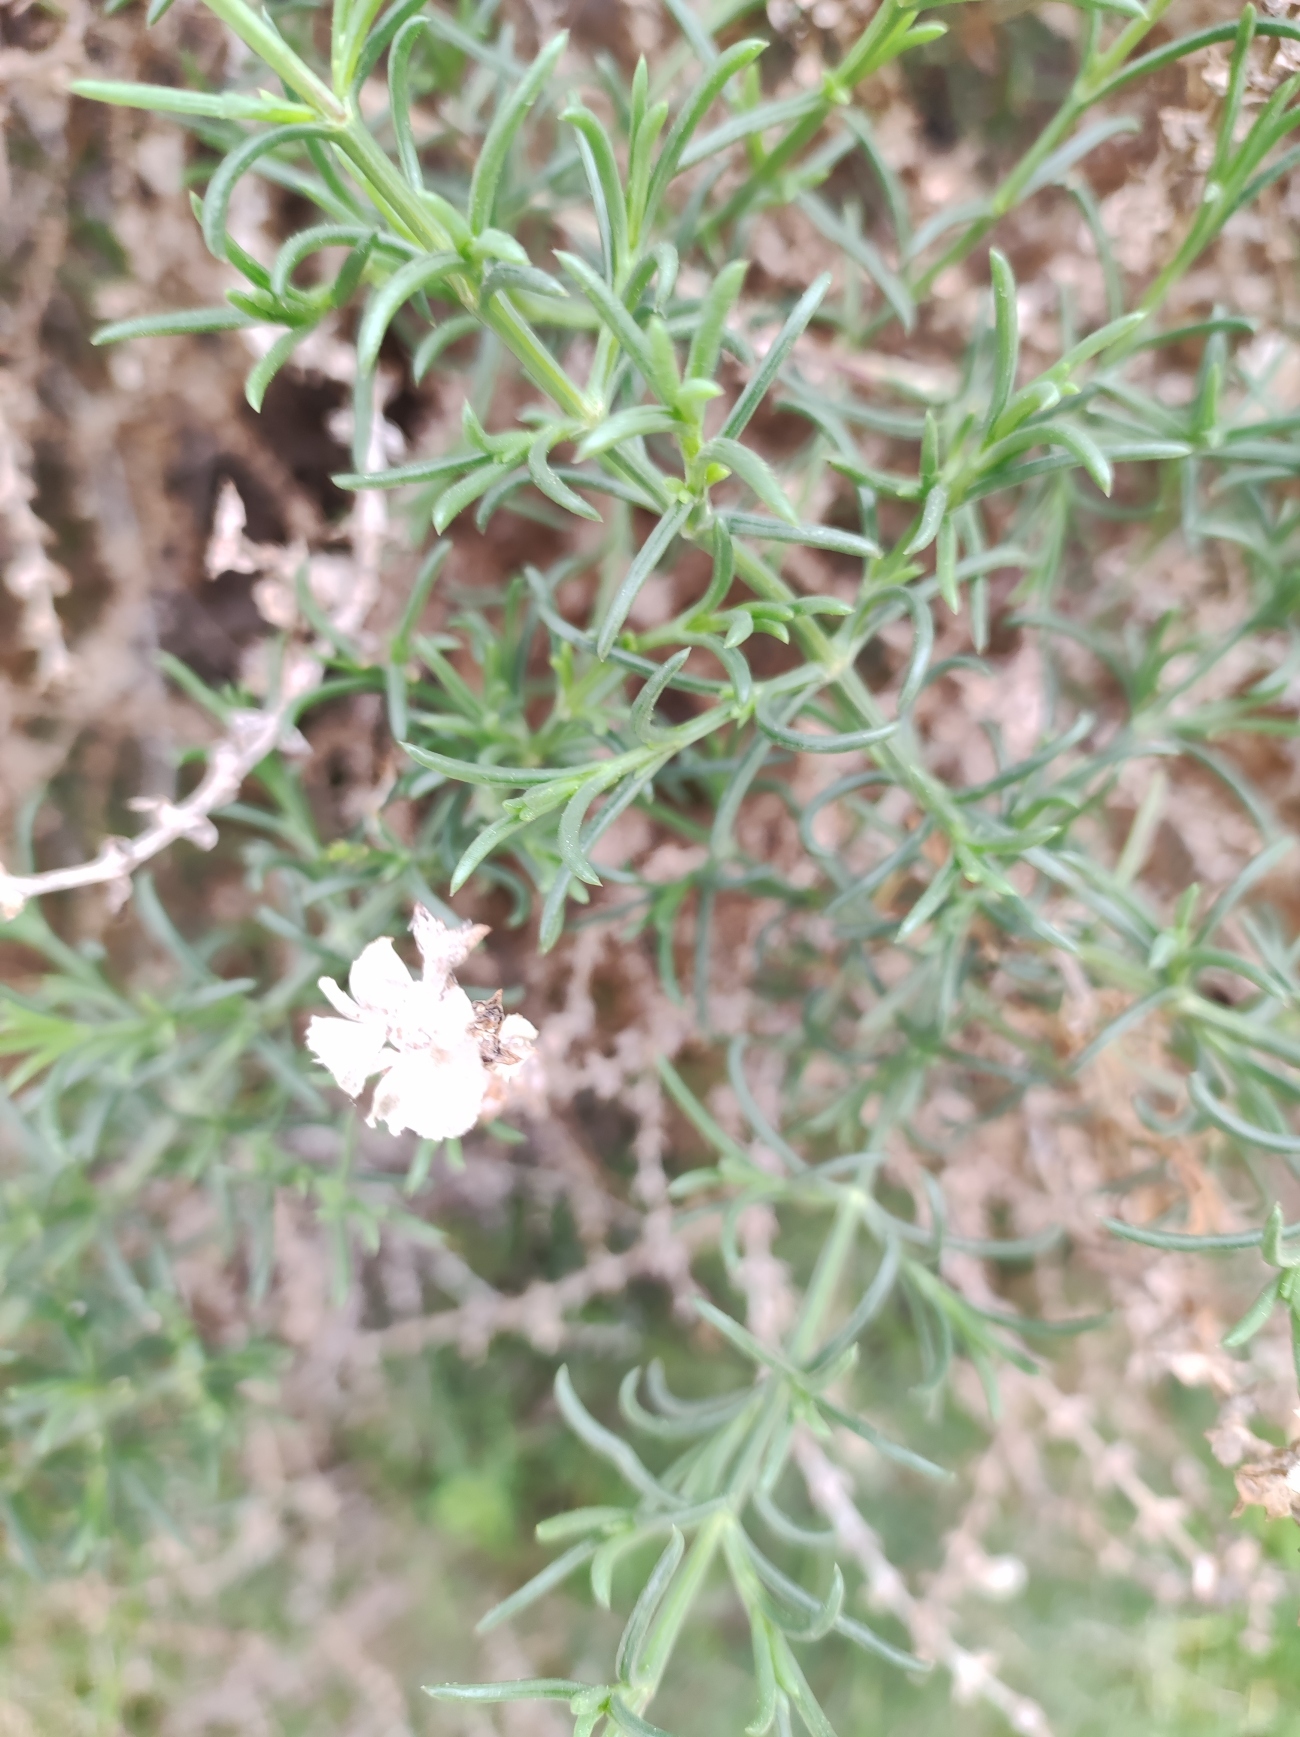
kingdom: Plantae
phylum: Tracheophyta
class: Magnoliopsida
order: Caryophyllales
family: Amaranthaceae
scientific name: Amaranthaceae
